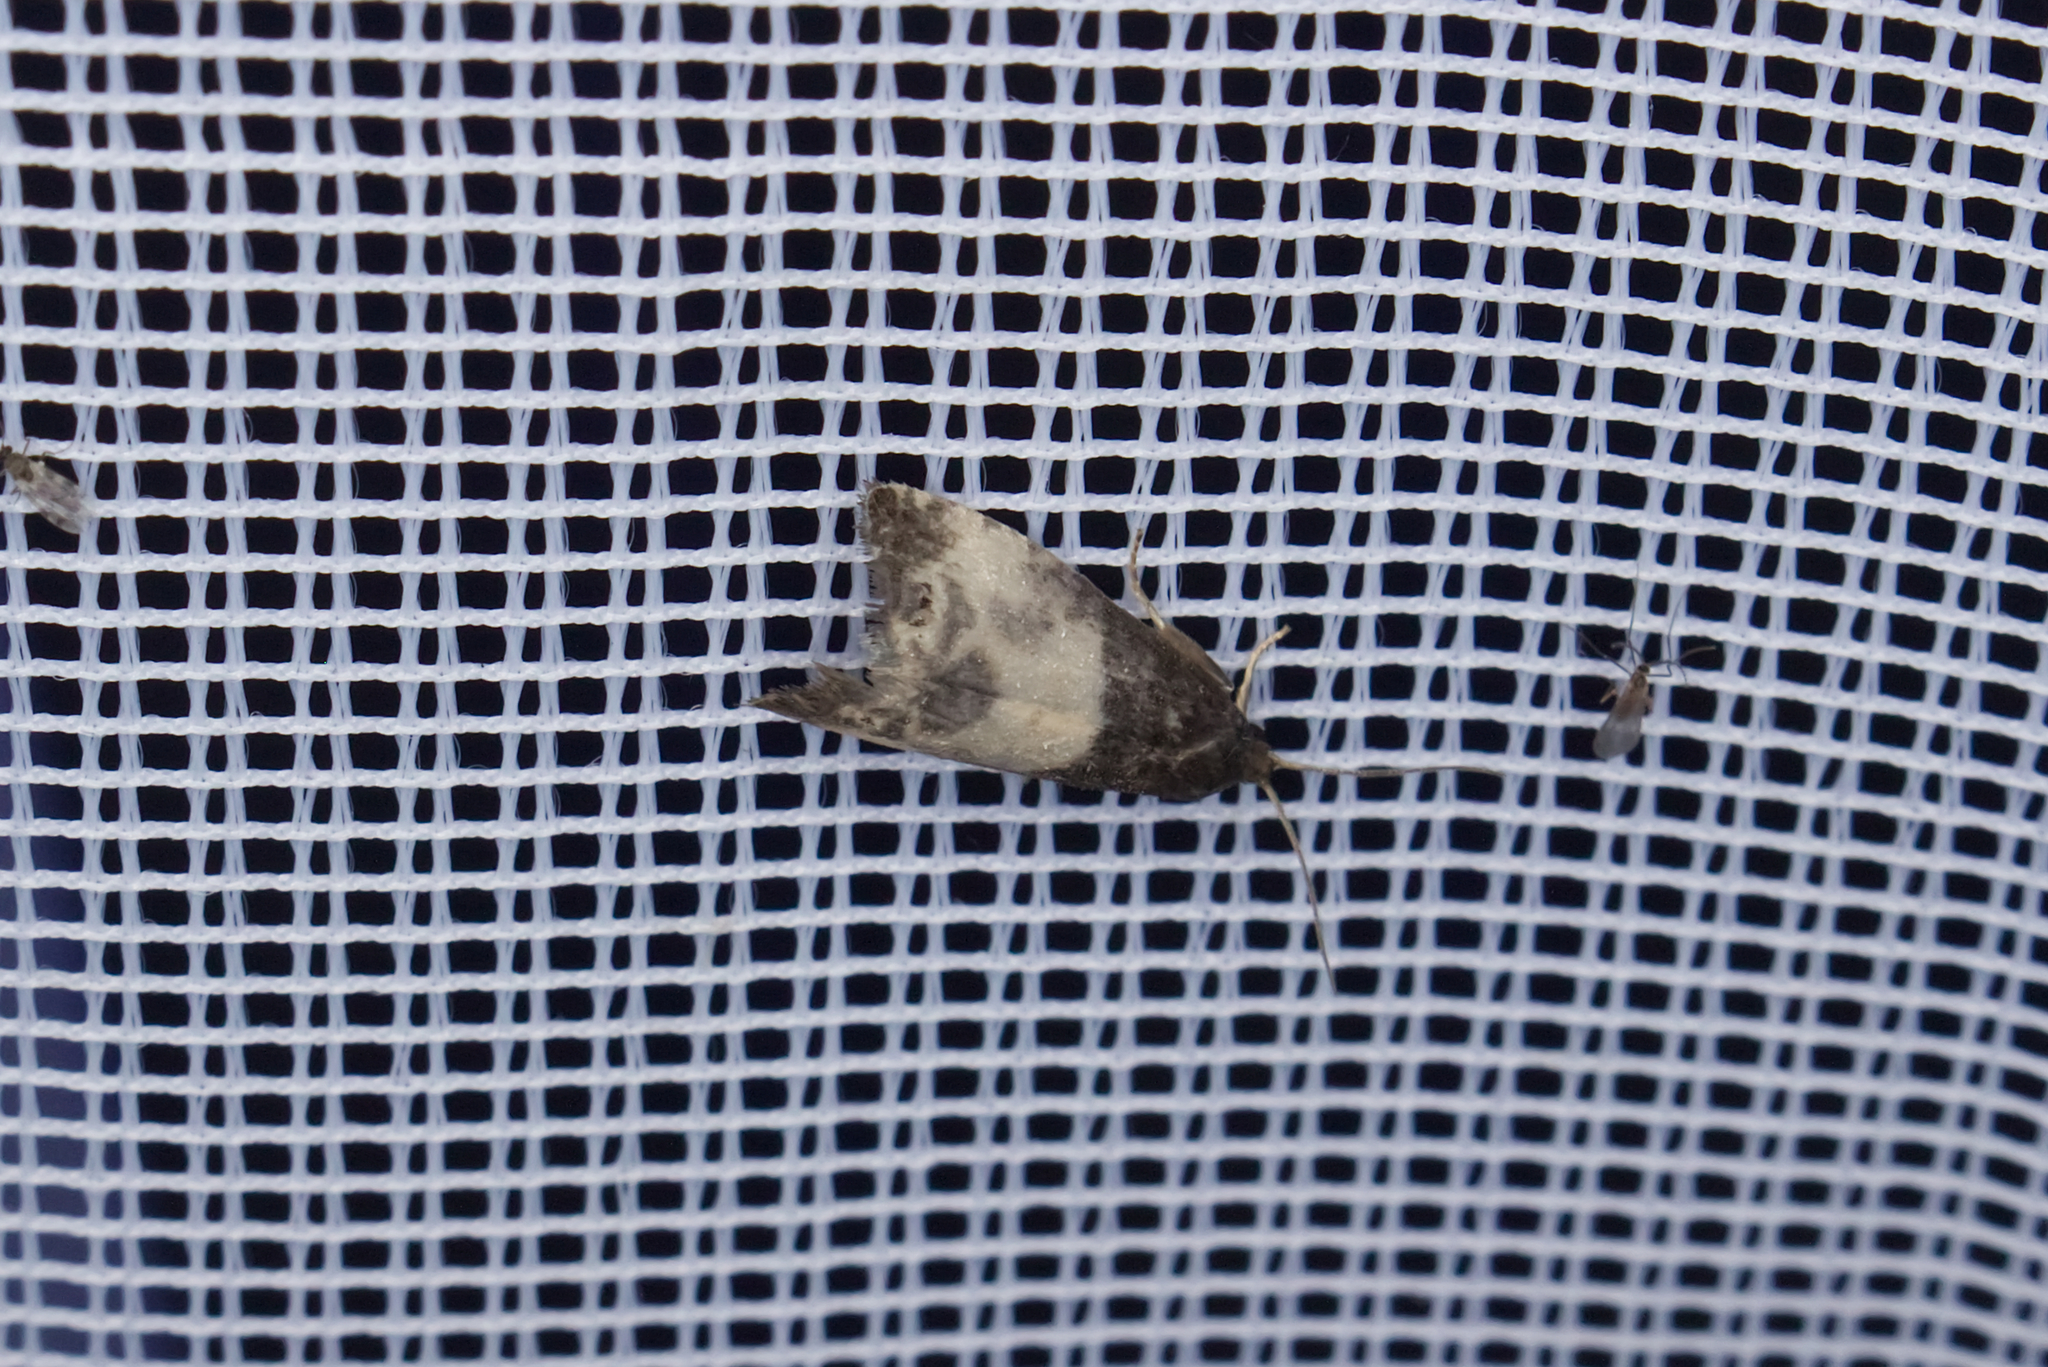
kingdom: Animalia
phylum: Arthropoda
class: Insecta
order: Lepidoptera
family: Tortricidae
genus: Notocelia
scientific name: Notocelia cynosbatella
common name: Yellow-faced bell moth
